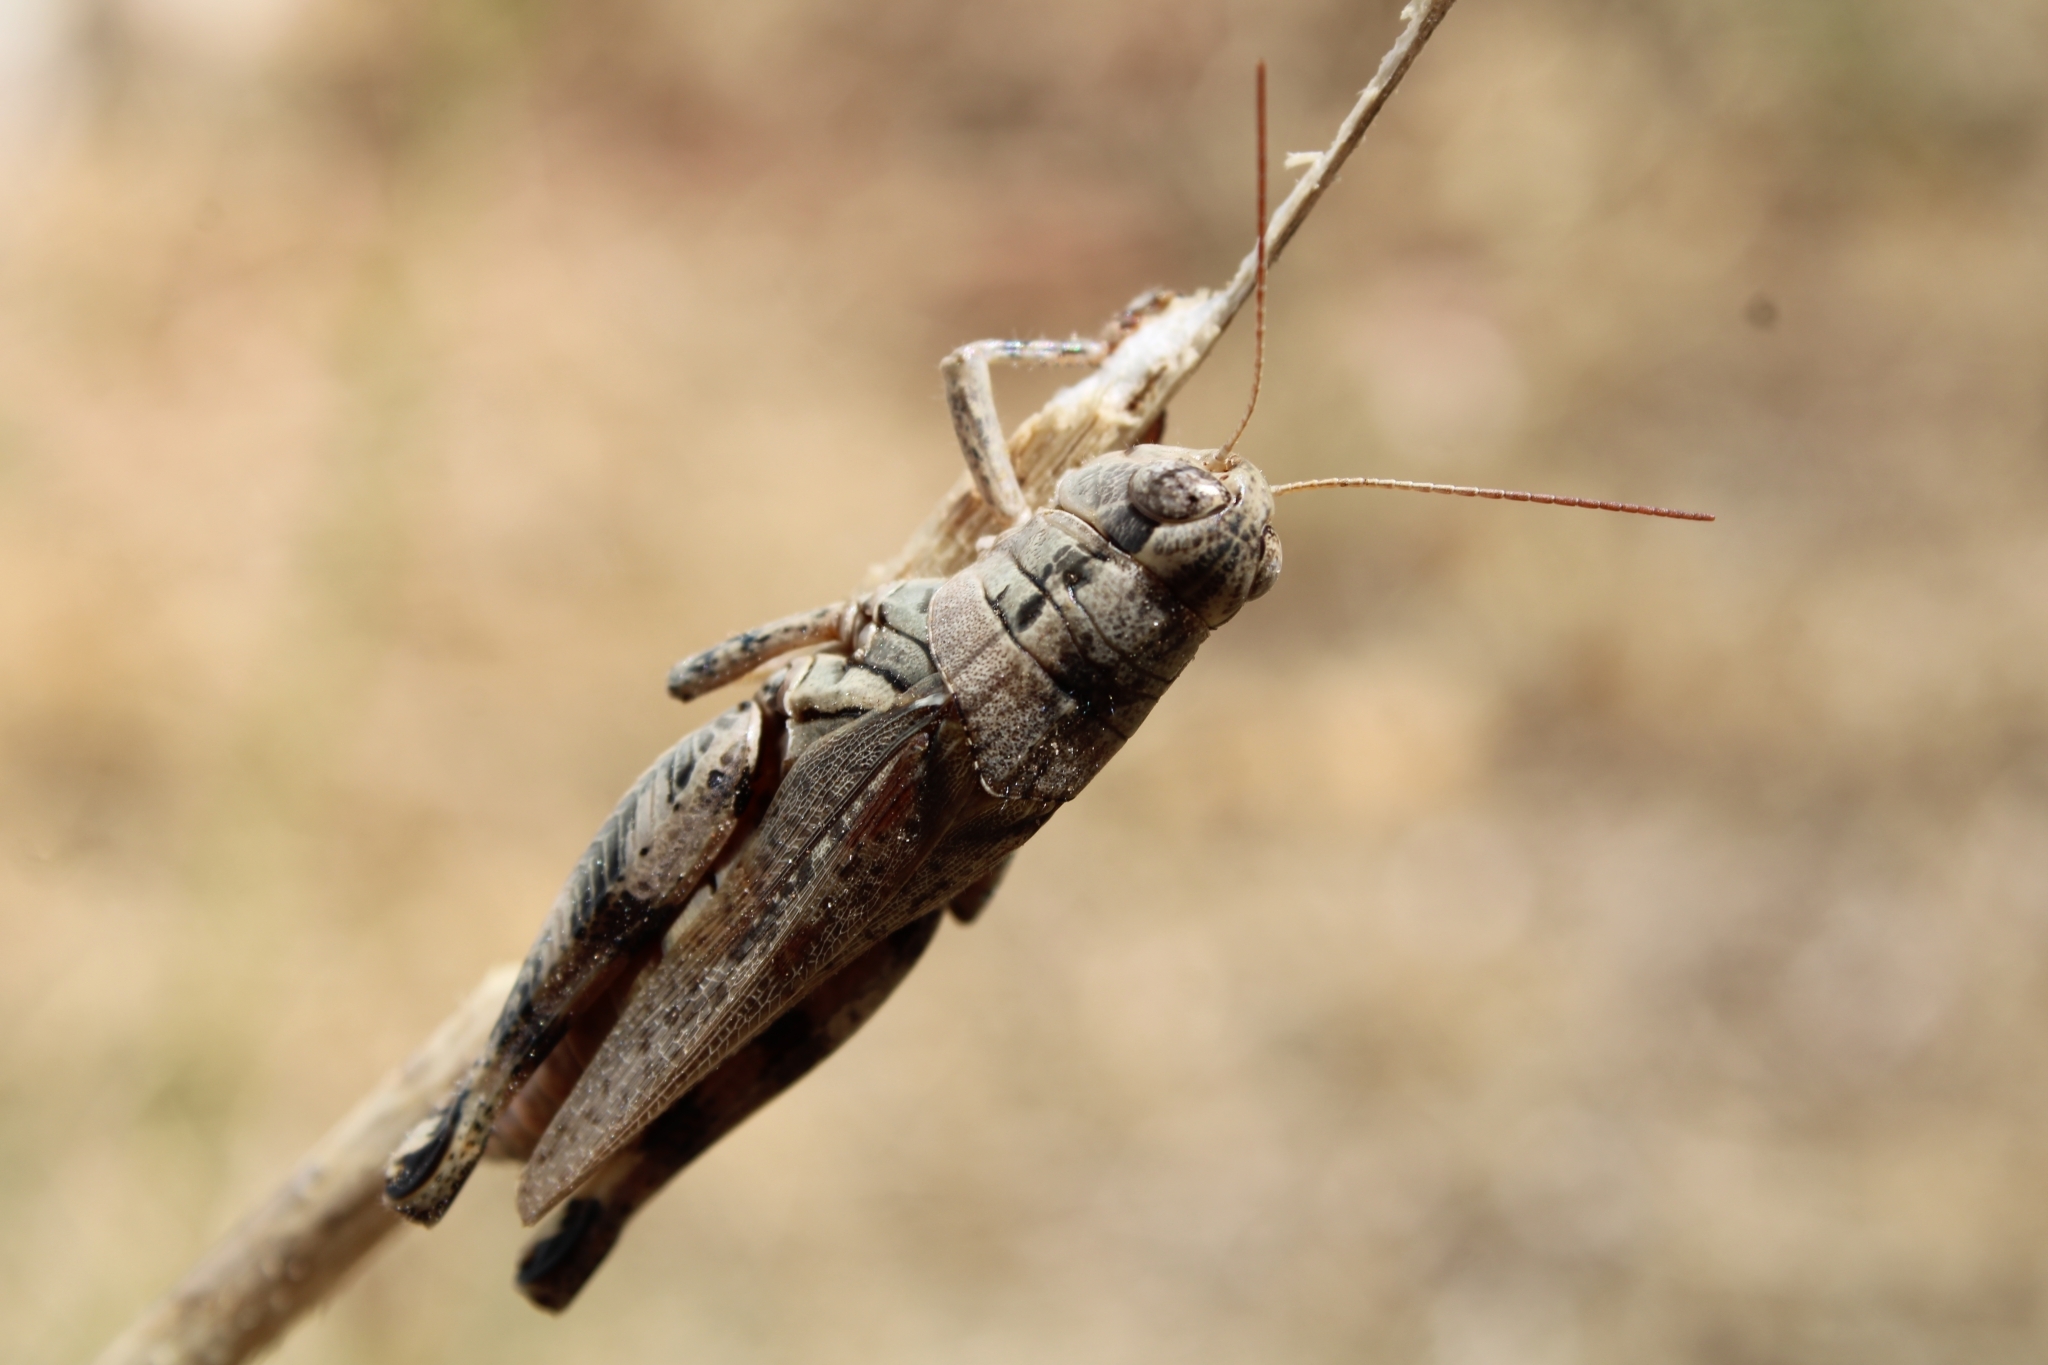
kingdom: Animalia
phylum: Arthropoda
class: Insecta
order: Orthoptera
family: Acrididae
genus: Melanoplus
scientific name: Melanoplus ponderosus
